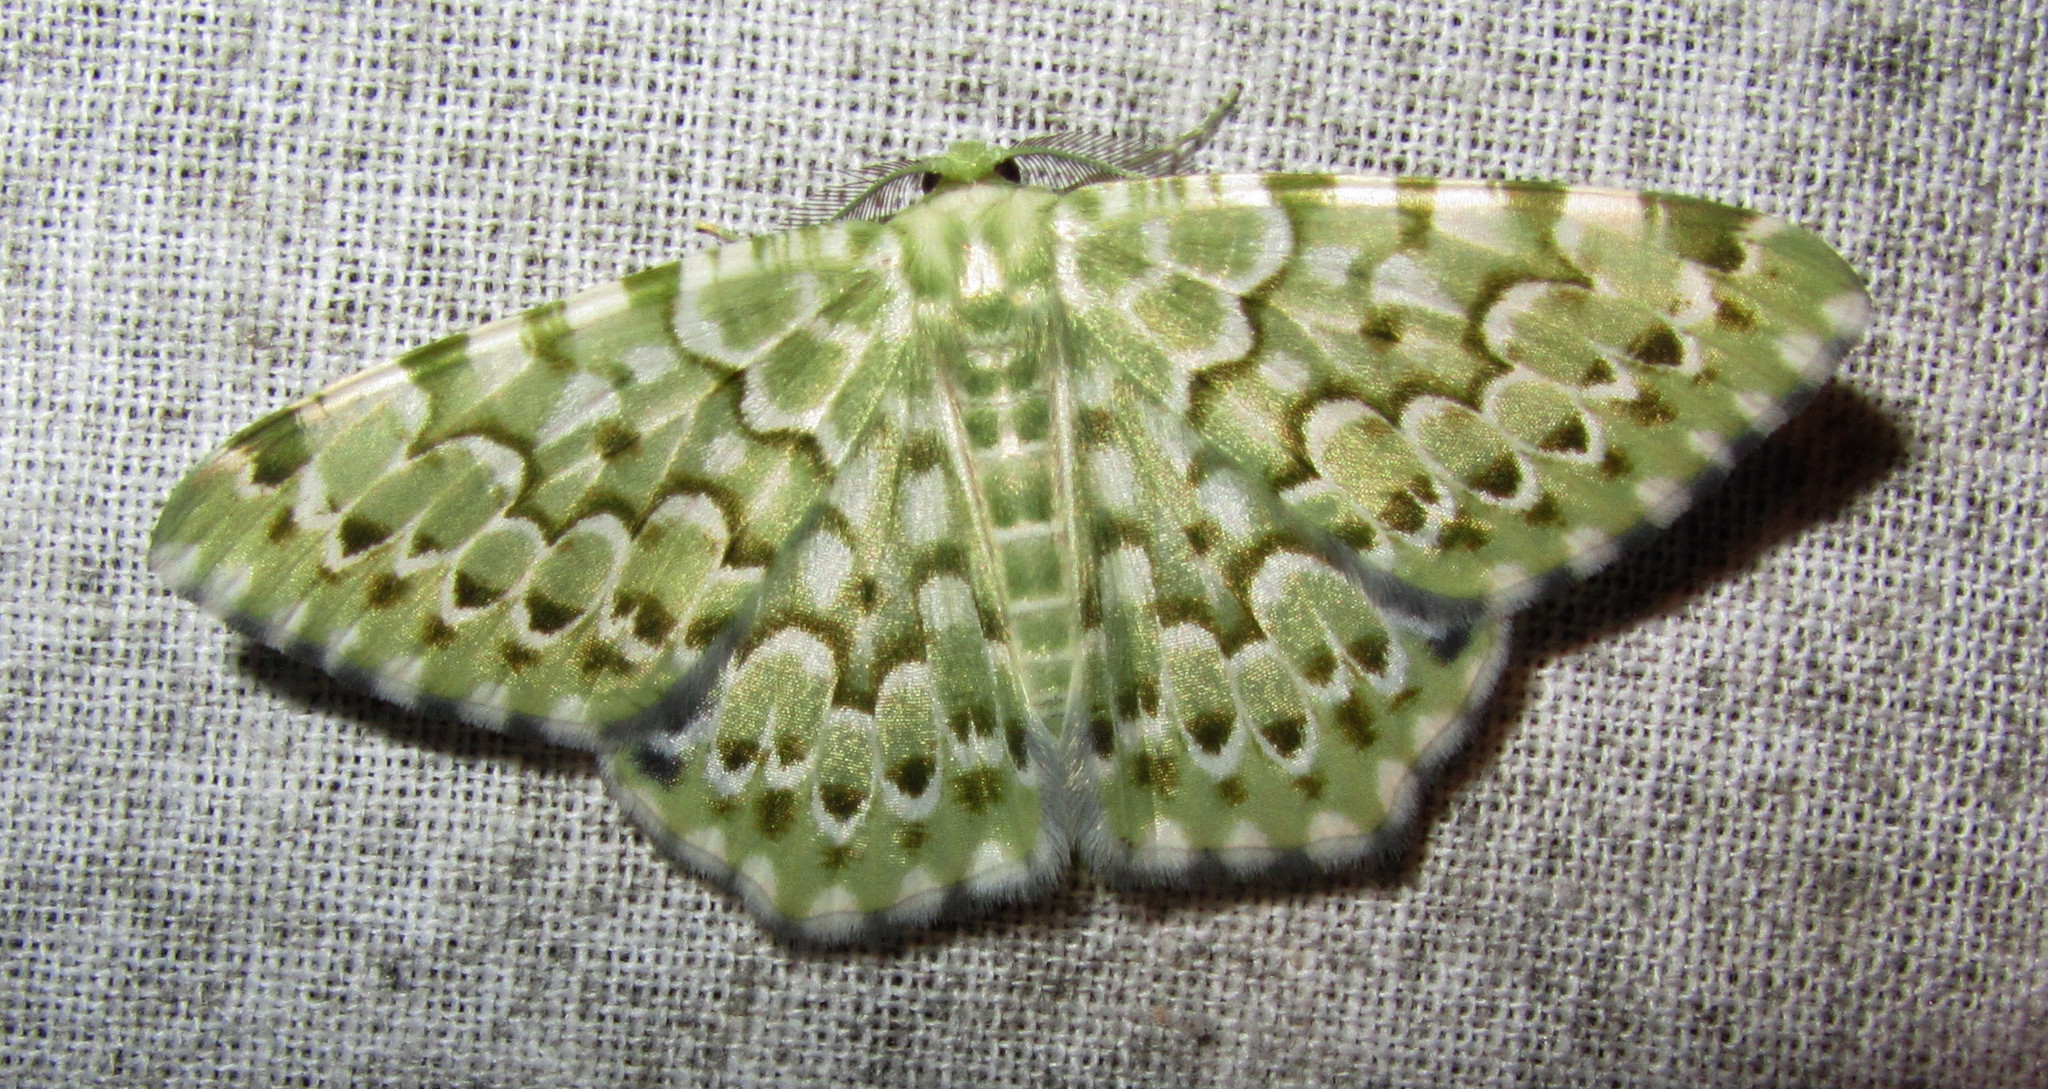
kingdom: Animalia
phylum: Arthropoda
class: Insecta
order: Lepidoptera
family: Geometridae
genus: Chlororithra
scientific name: Chlororithra fea
